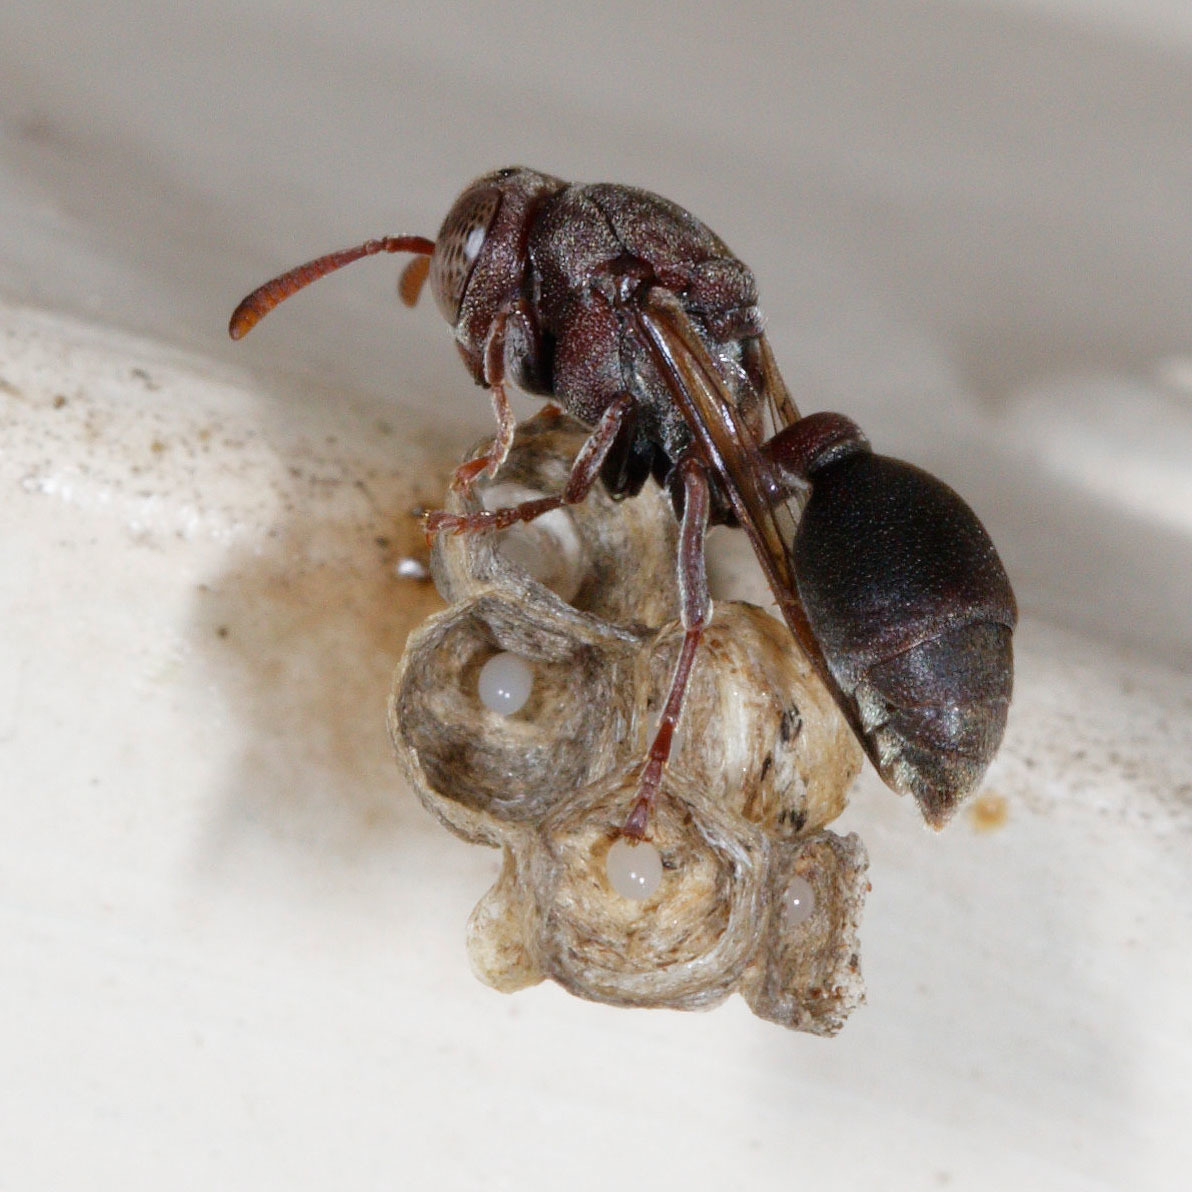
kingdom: Animalia
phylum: Arthropoda
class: Insecta
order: Hymenoptera
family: Vespidae
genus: Ropalidia
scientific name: Ropalidia revolutionalis
